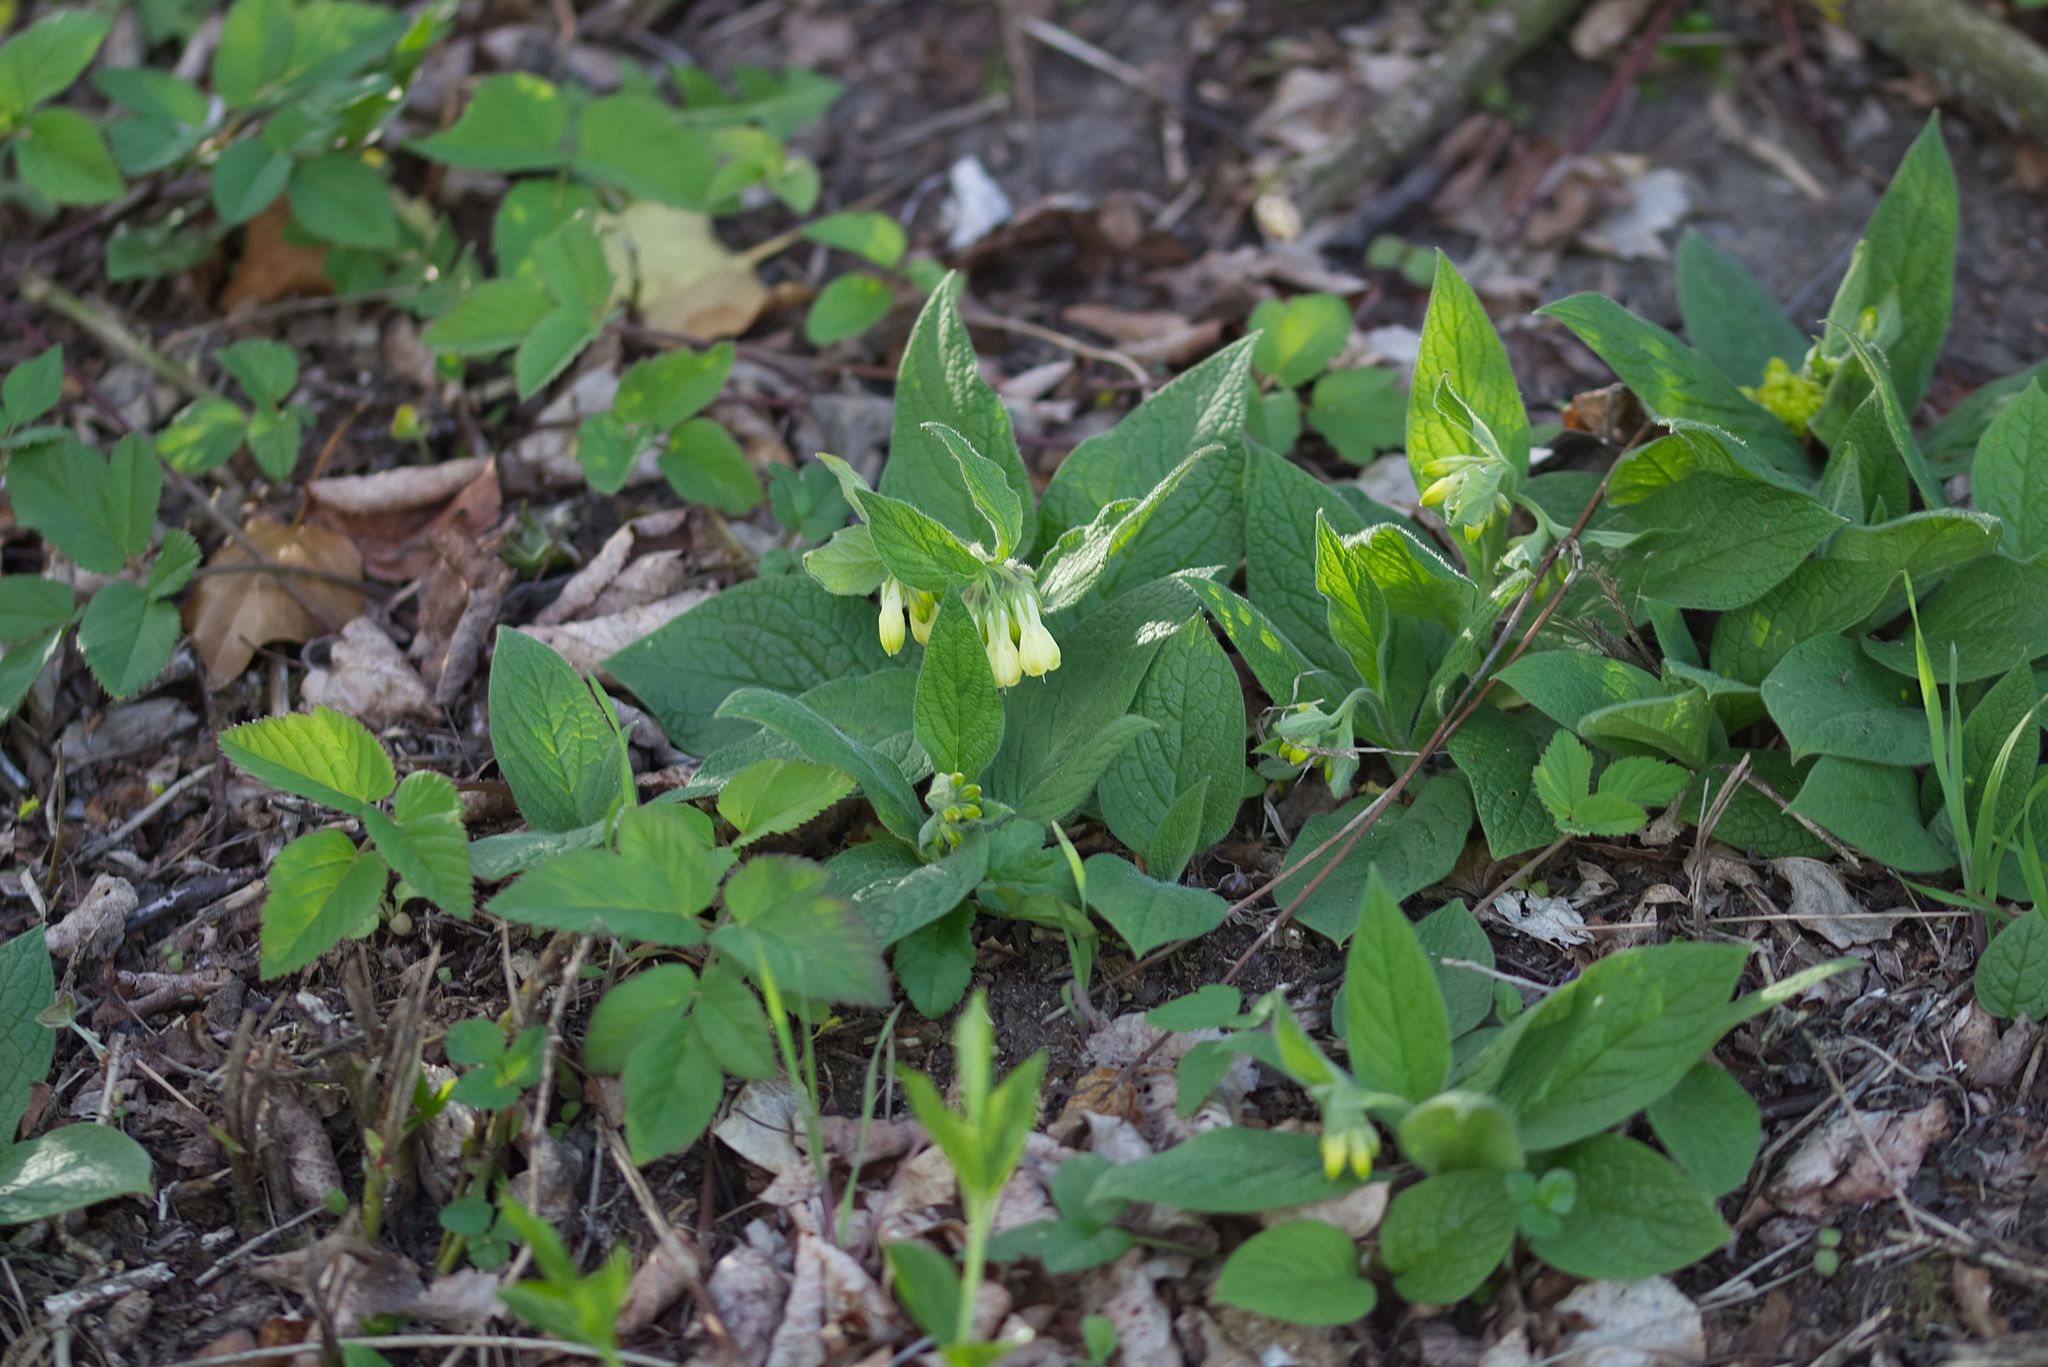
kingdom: Plantae
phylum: Tracheophyta
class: Magnoliopsida
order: Boraginales
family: Boraginaceae
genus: Symphytum
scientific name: Symphytum tuberosum
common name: Tuberous comfrey
